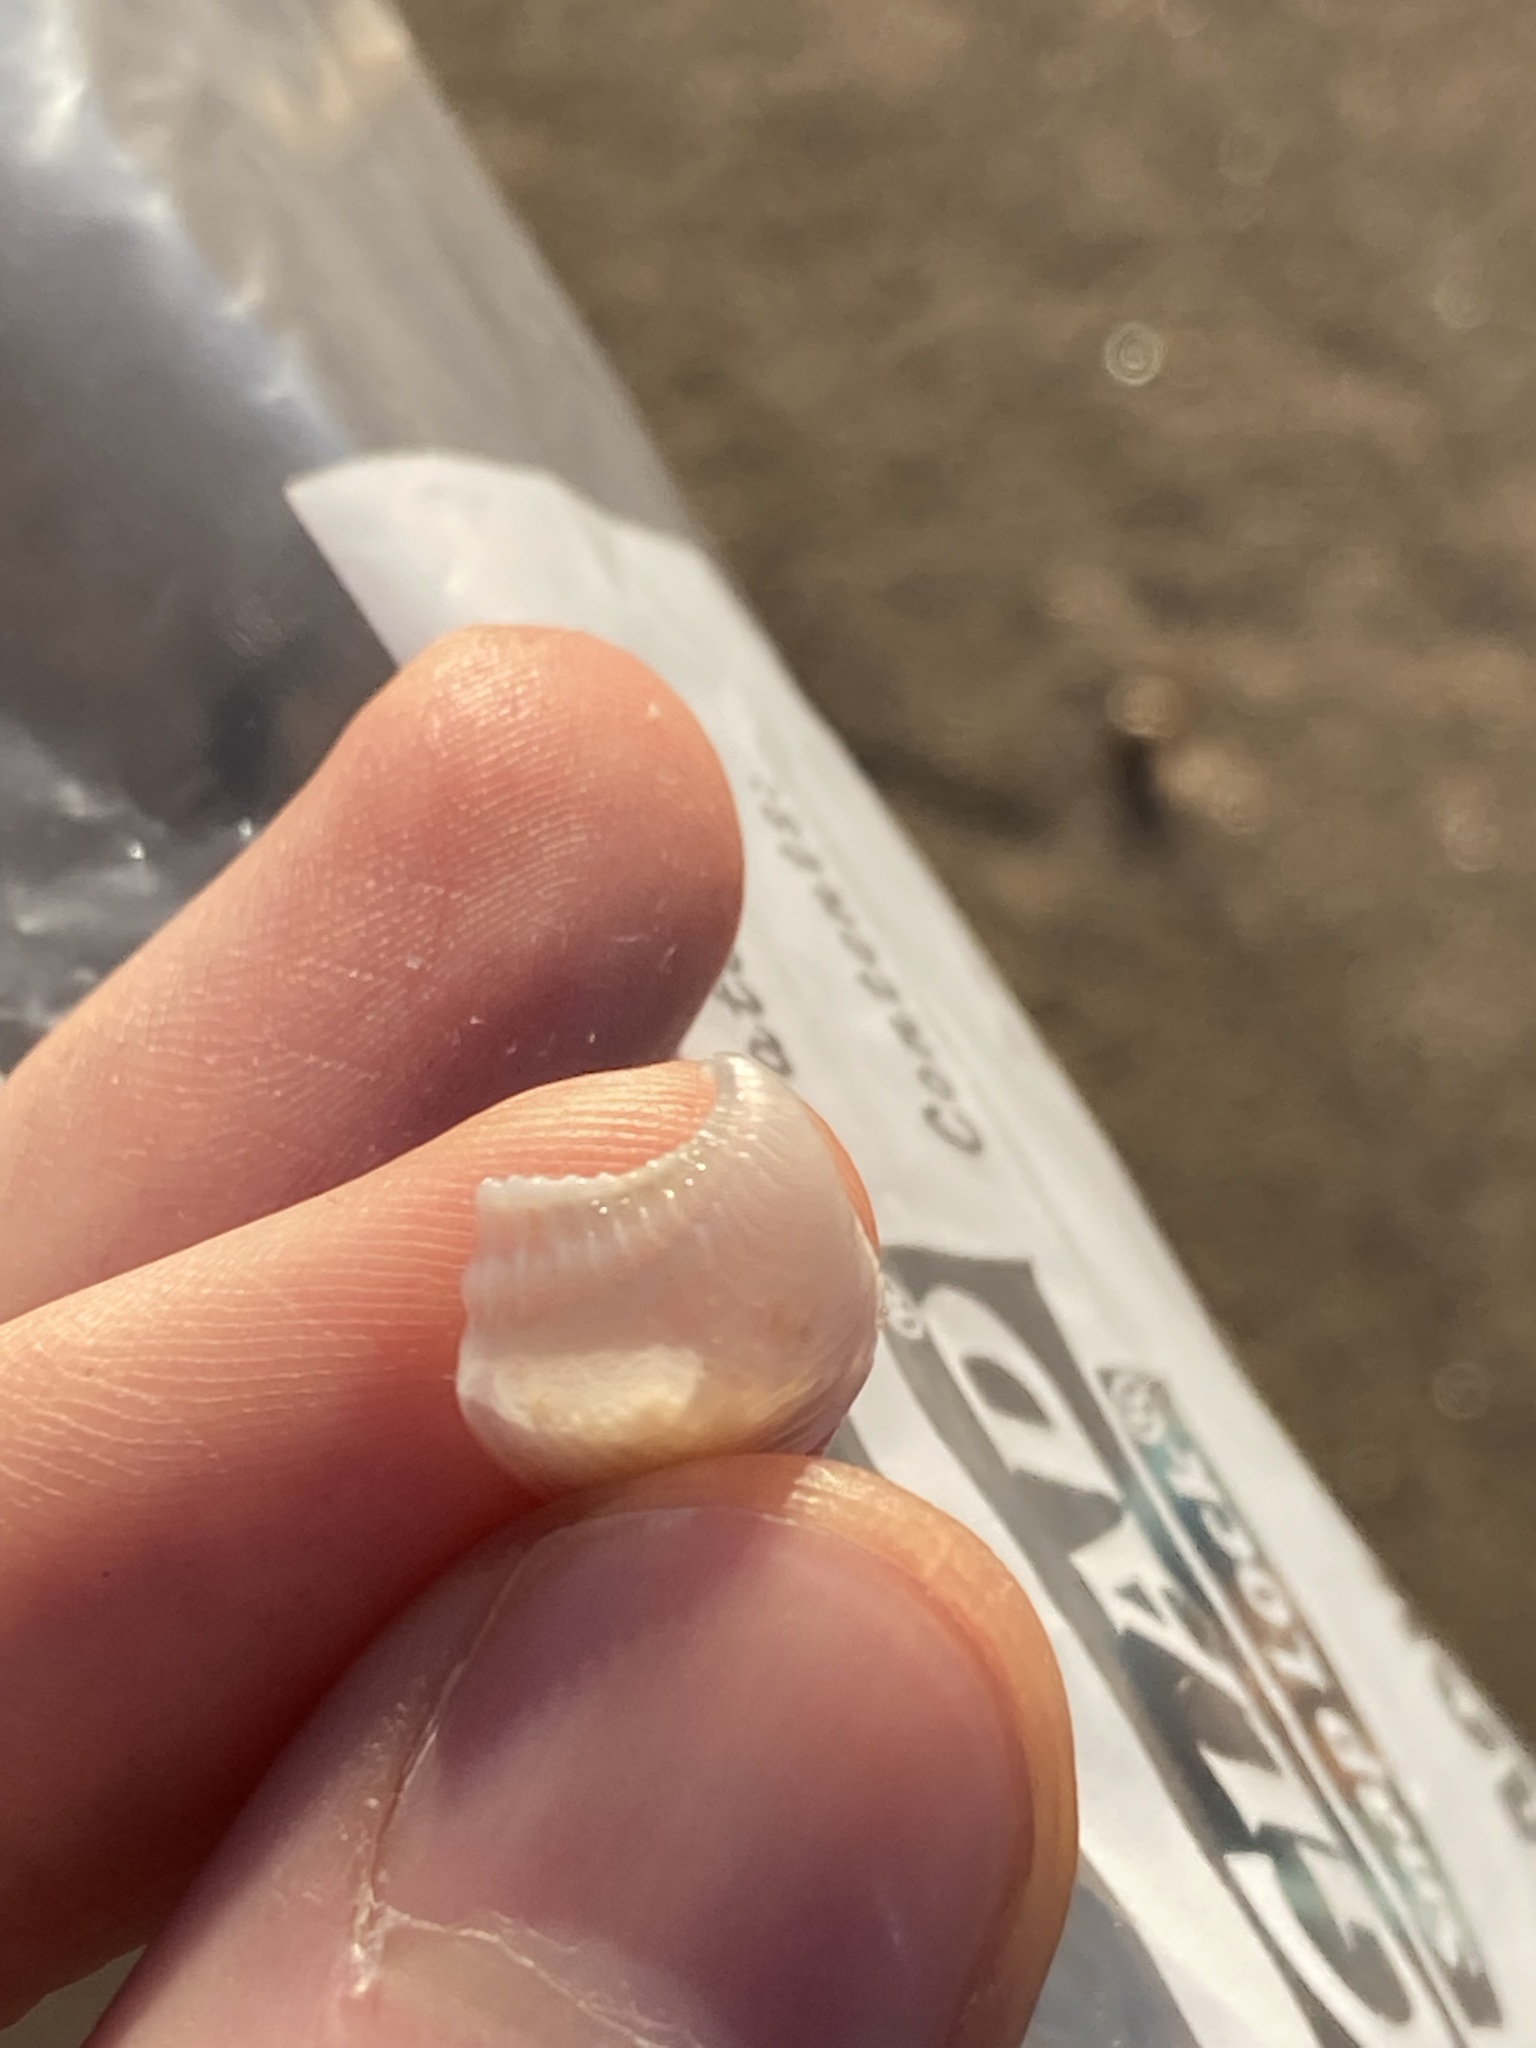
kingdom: Animalia
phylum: Mollusca
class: Bivalvia
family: Myochamidae
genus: Myadora
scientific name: Myadora brevis
